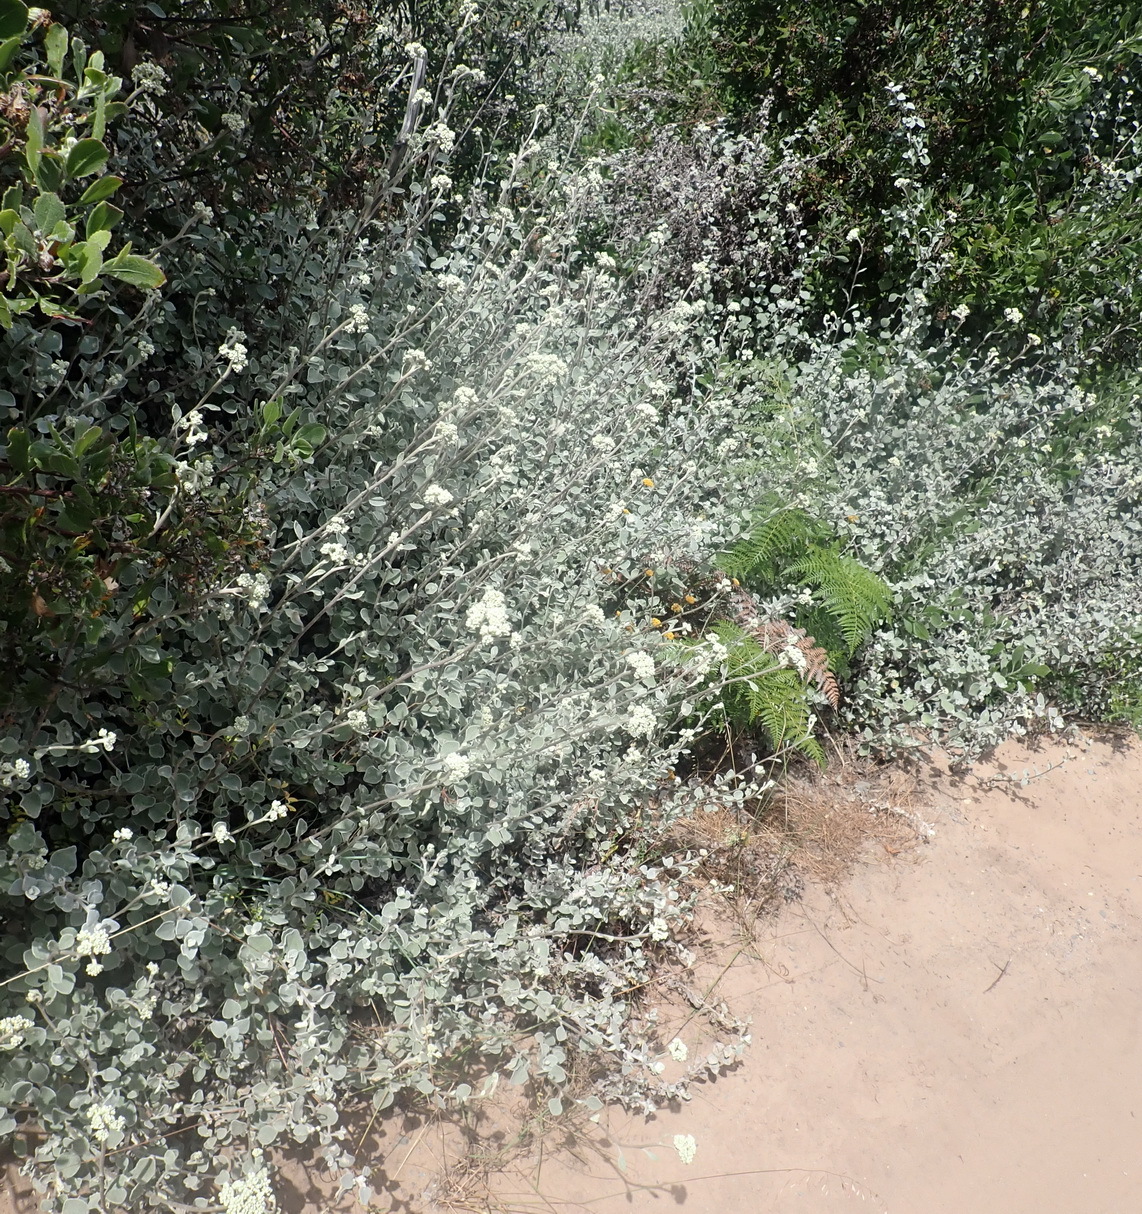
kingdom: Plantae
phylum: Tracheophyta
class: Magnoliopsida
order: Asterales
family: Asteraceae
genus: Helichrysum
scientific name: Helichrysum petiolare
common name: Licorice-plant
